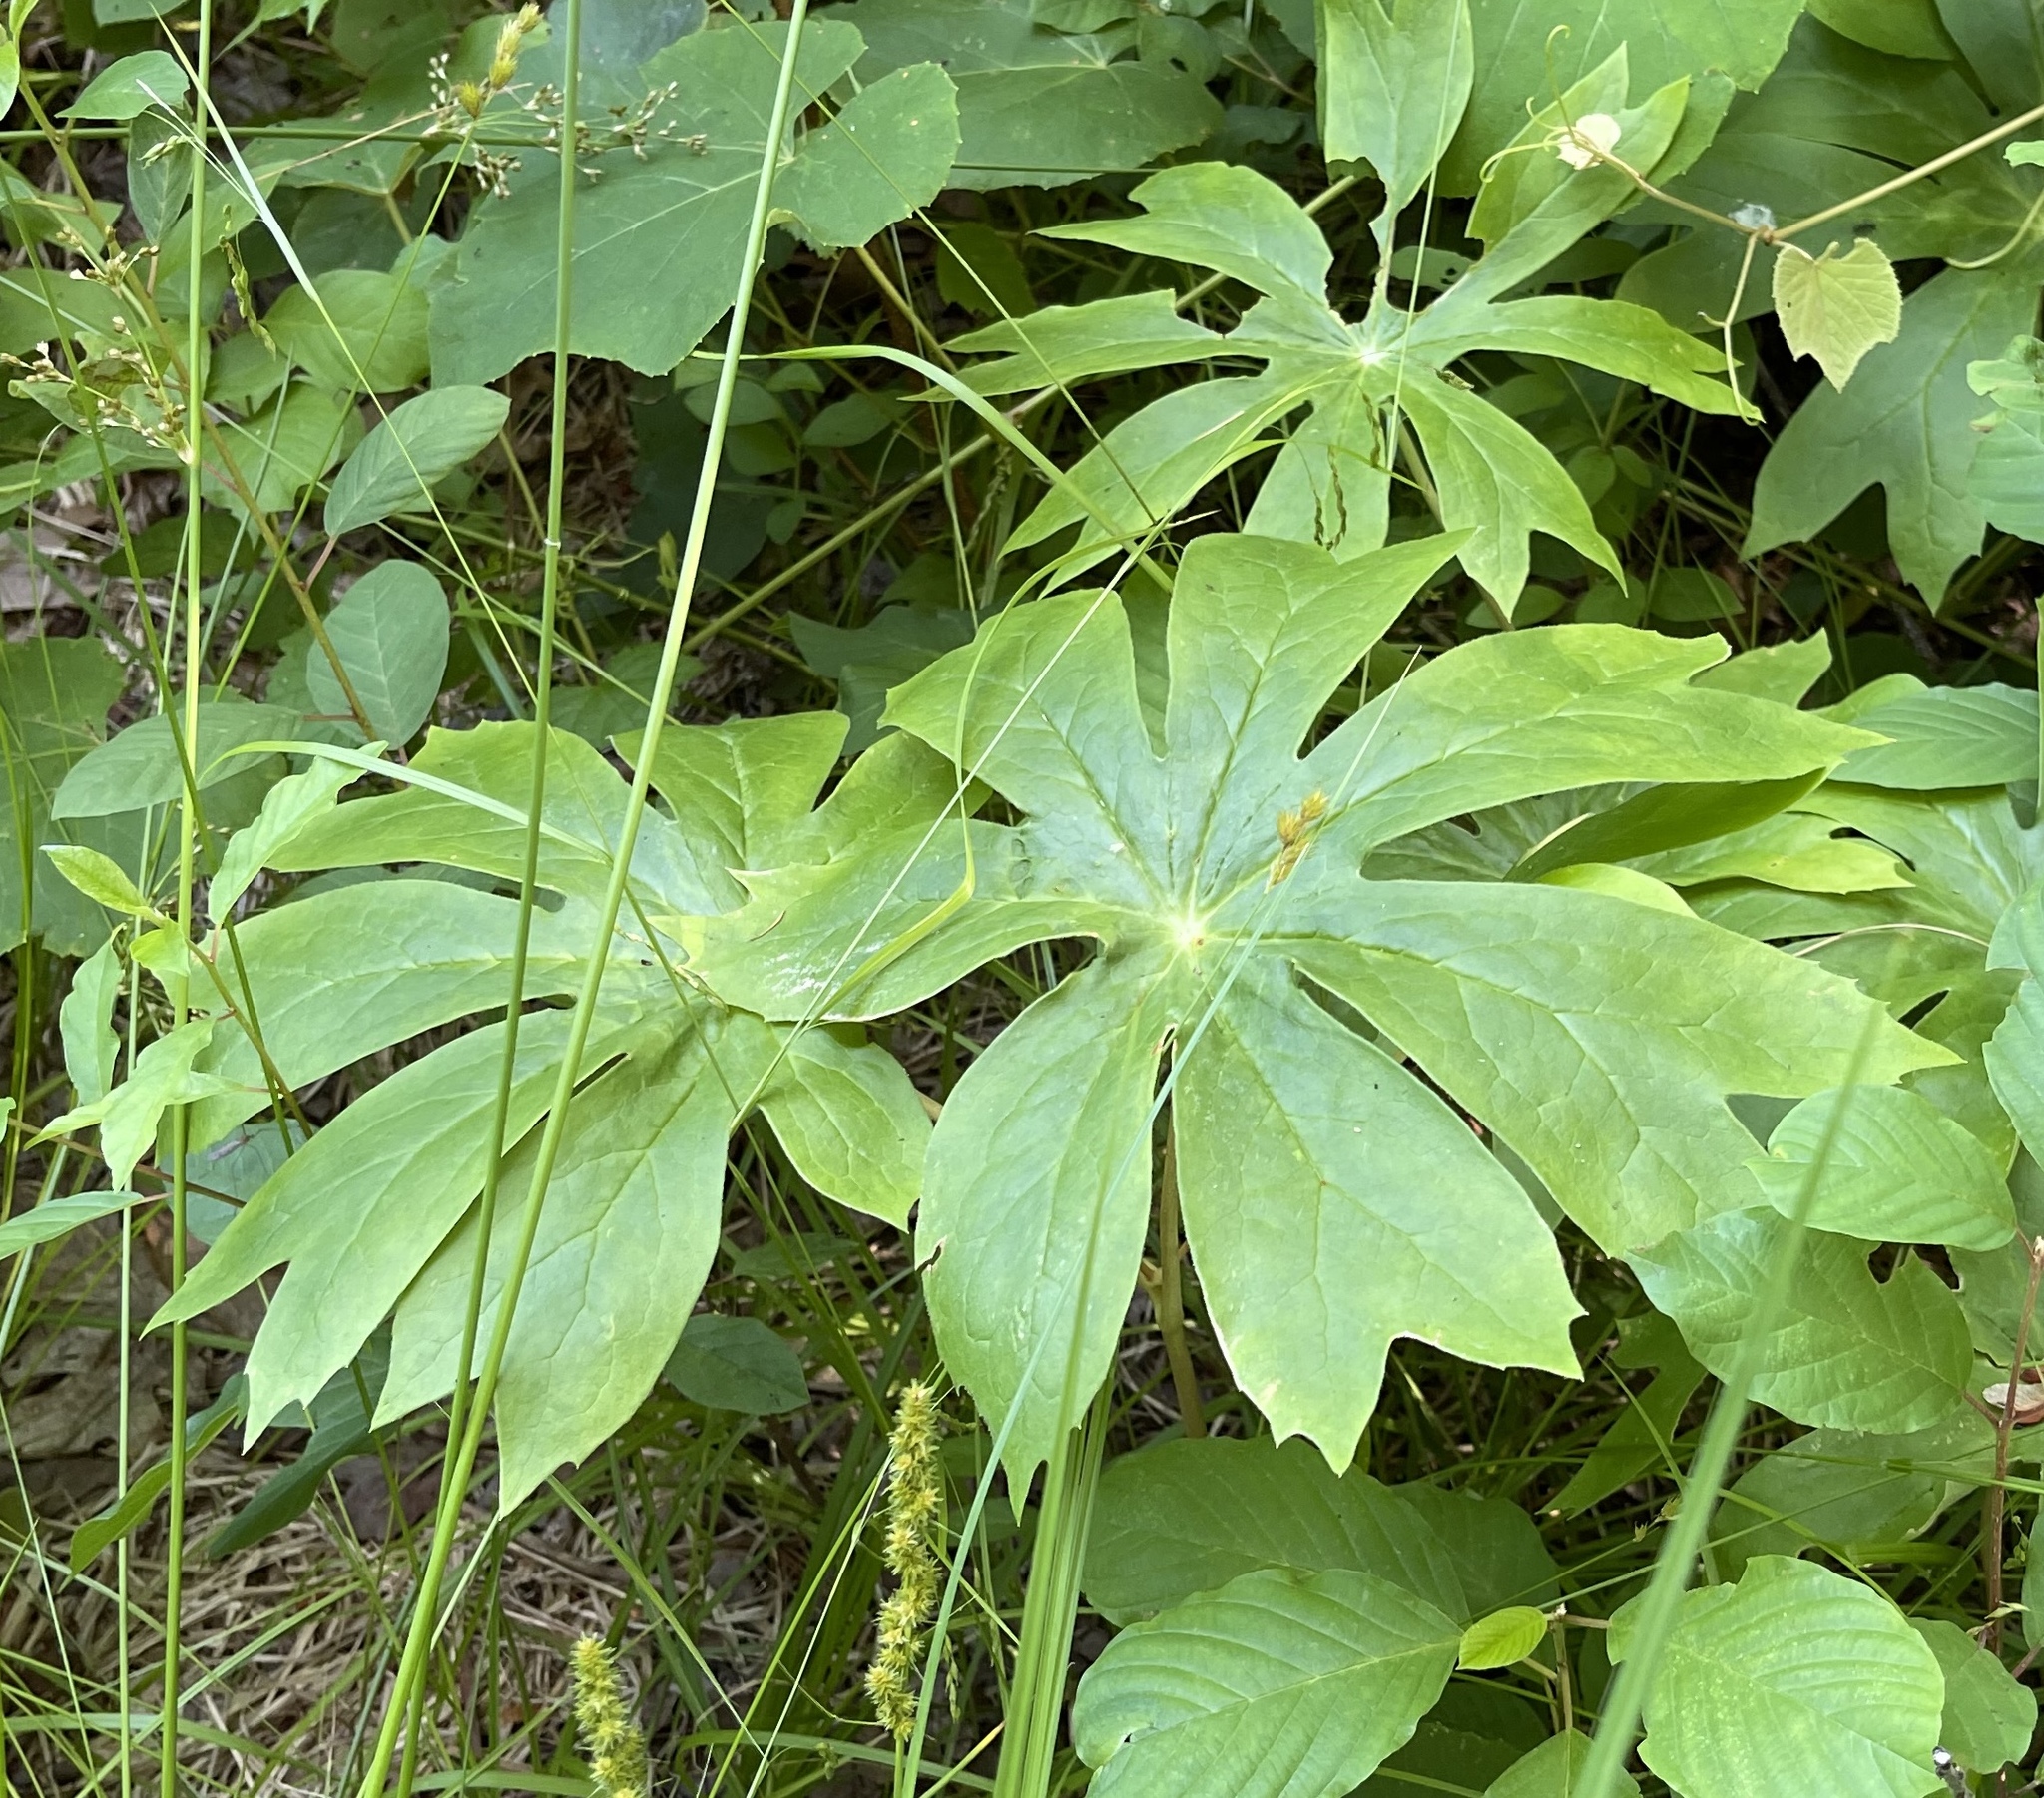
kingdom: Plantae
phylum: Tracheophyta
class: Magnoliopsida
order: Ranunculales
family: Berberidaceae
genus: Podophyllum
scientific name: Podophyllum peltatum
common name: Wild mandrake
